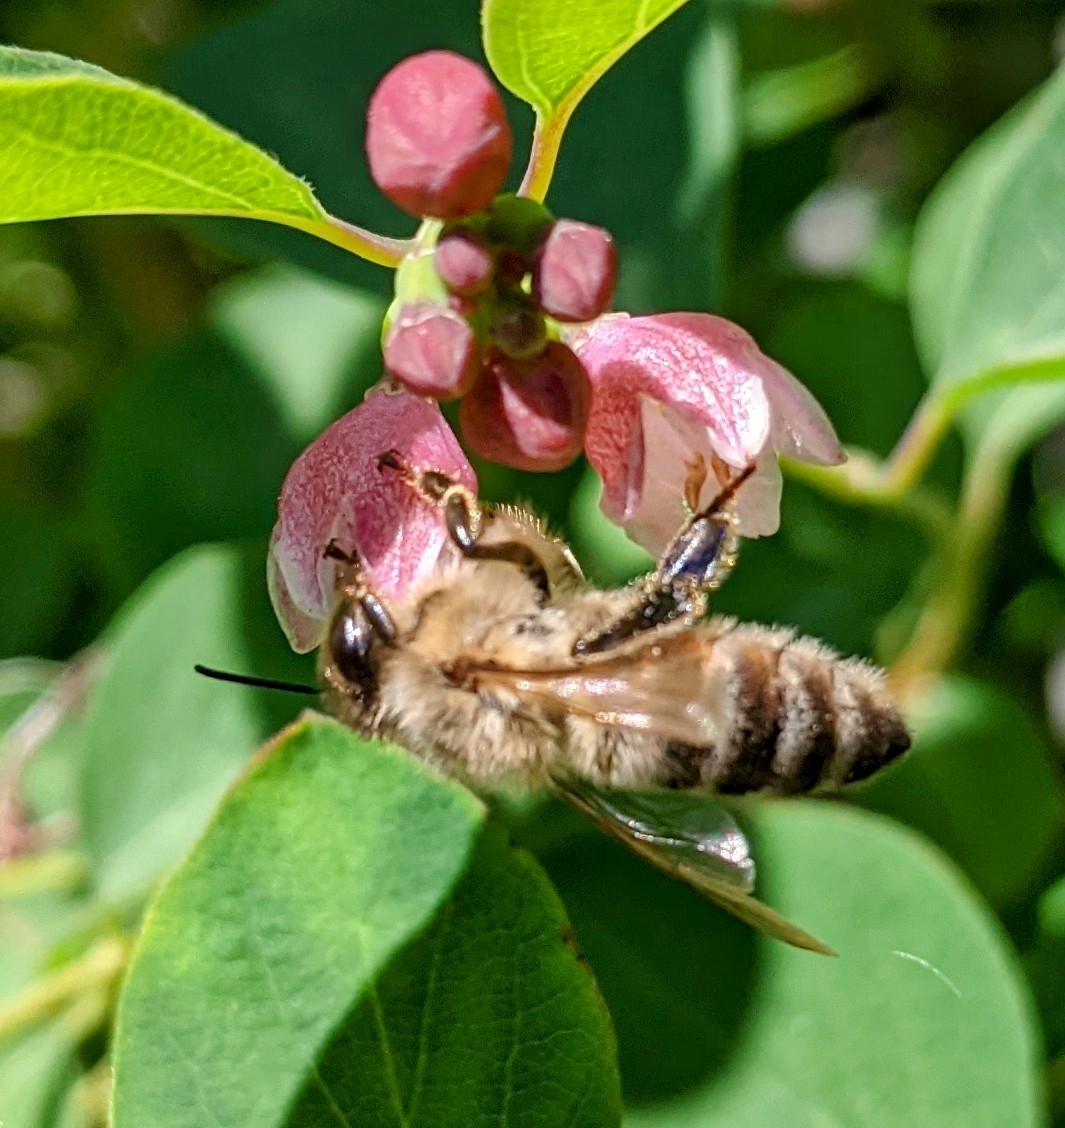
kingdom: Animalia
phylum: Arthropoda
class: Insecta
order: Hymenoptera
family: Apidae
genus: Apis
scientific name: Apis mellifera
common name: Honey bee
